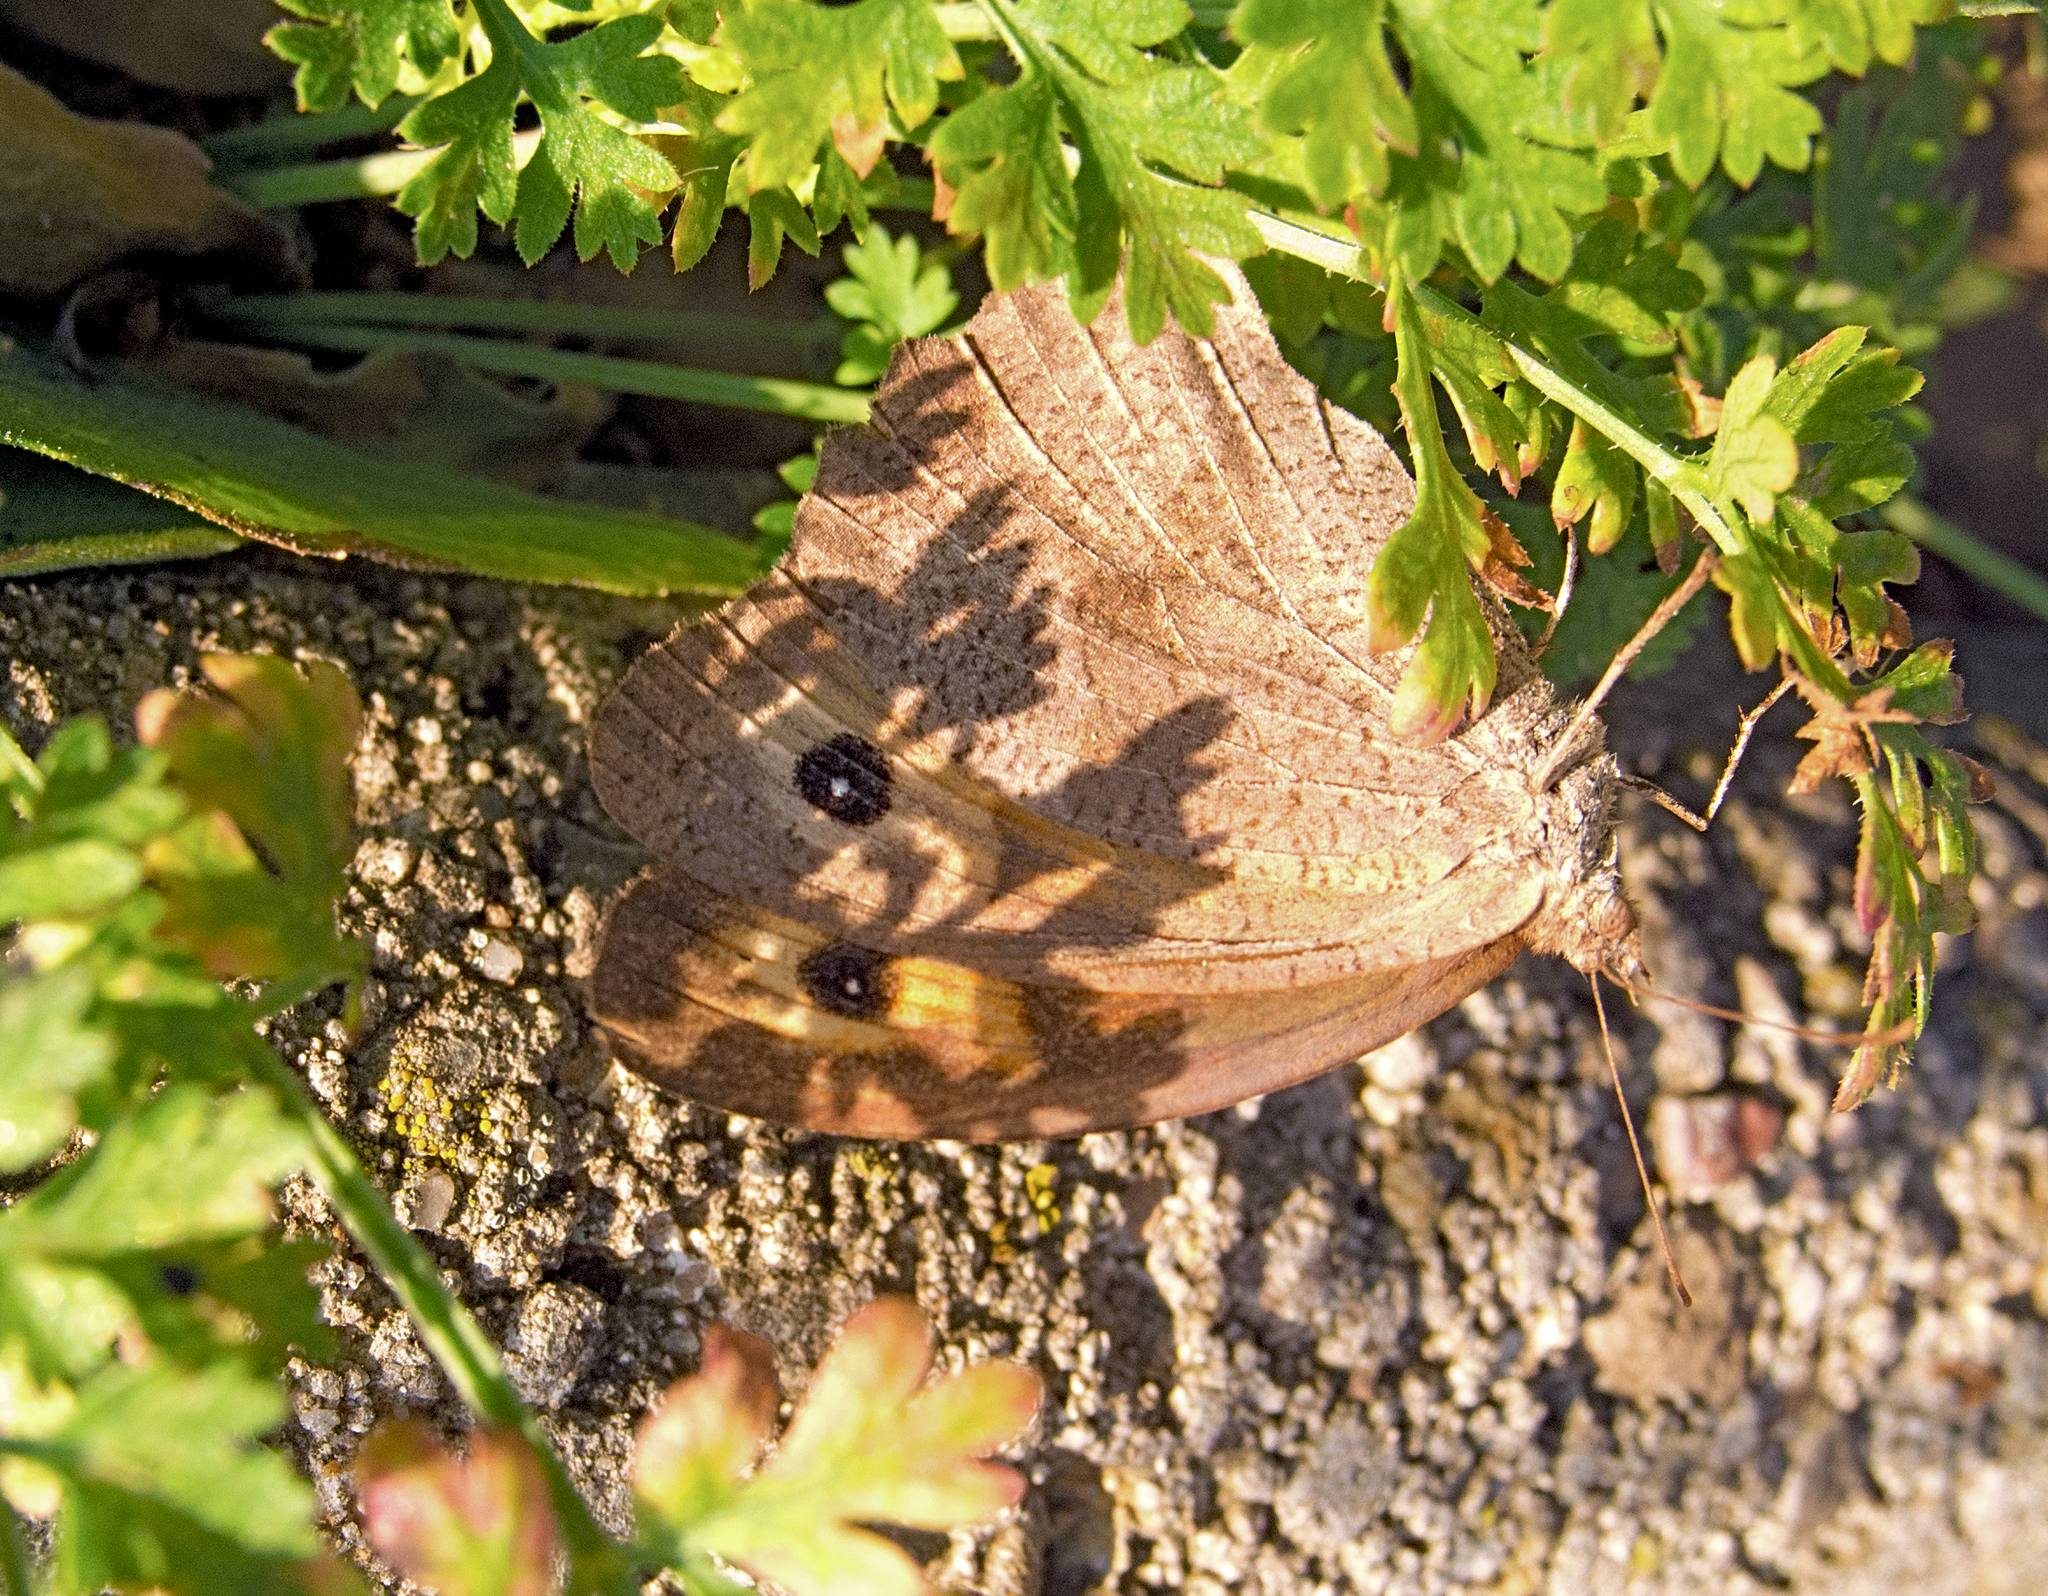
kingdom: Animalia
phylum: Arthropoda
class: Insecta
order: Lepidoptera
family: Nymphalidae
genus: Maniola
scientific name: Maniola jurtina
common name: Meadow brown
